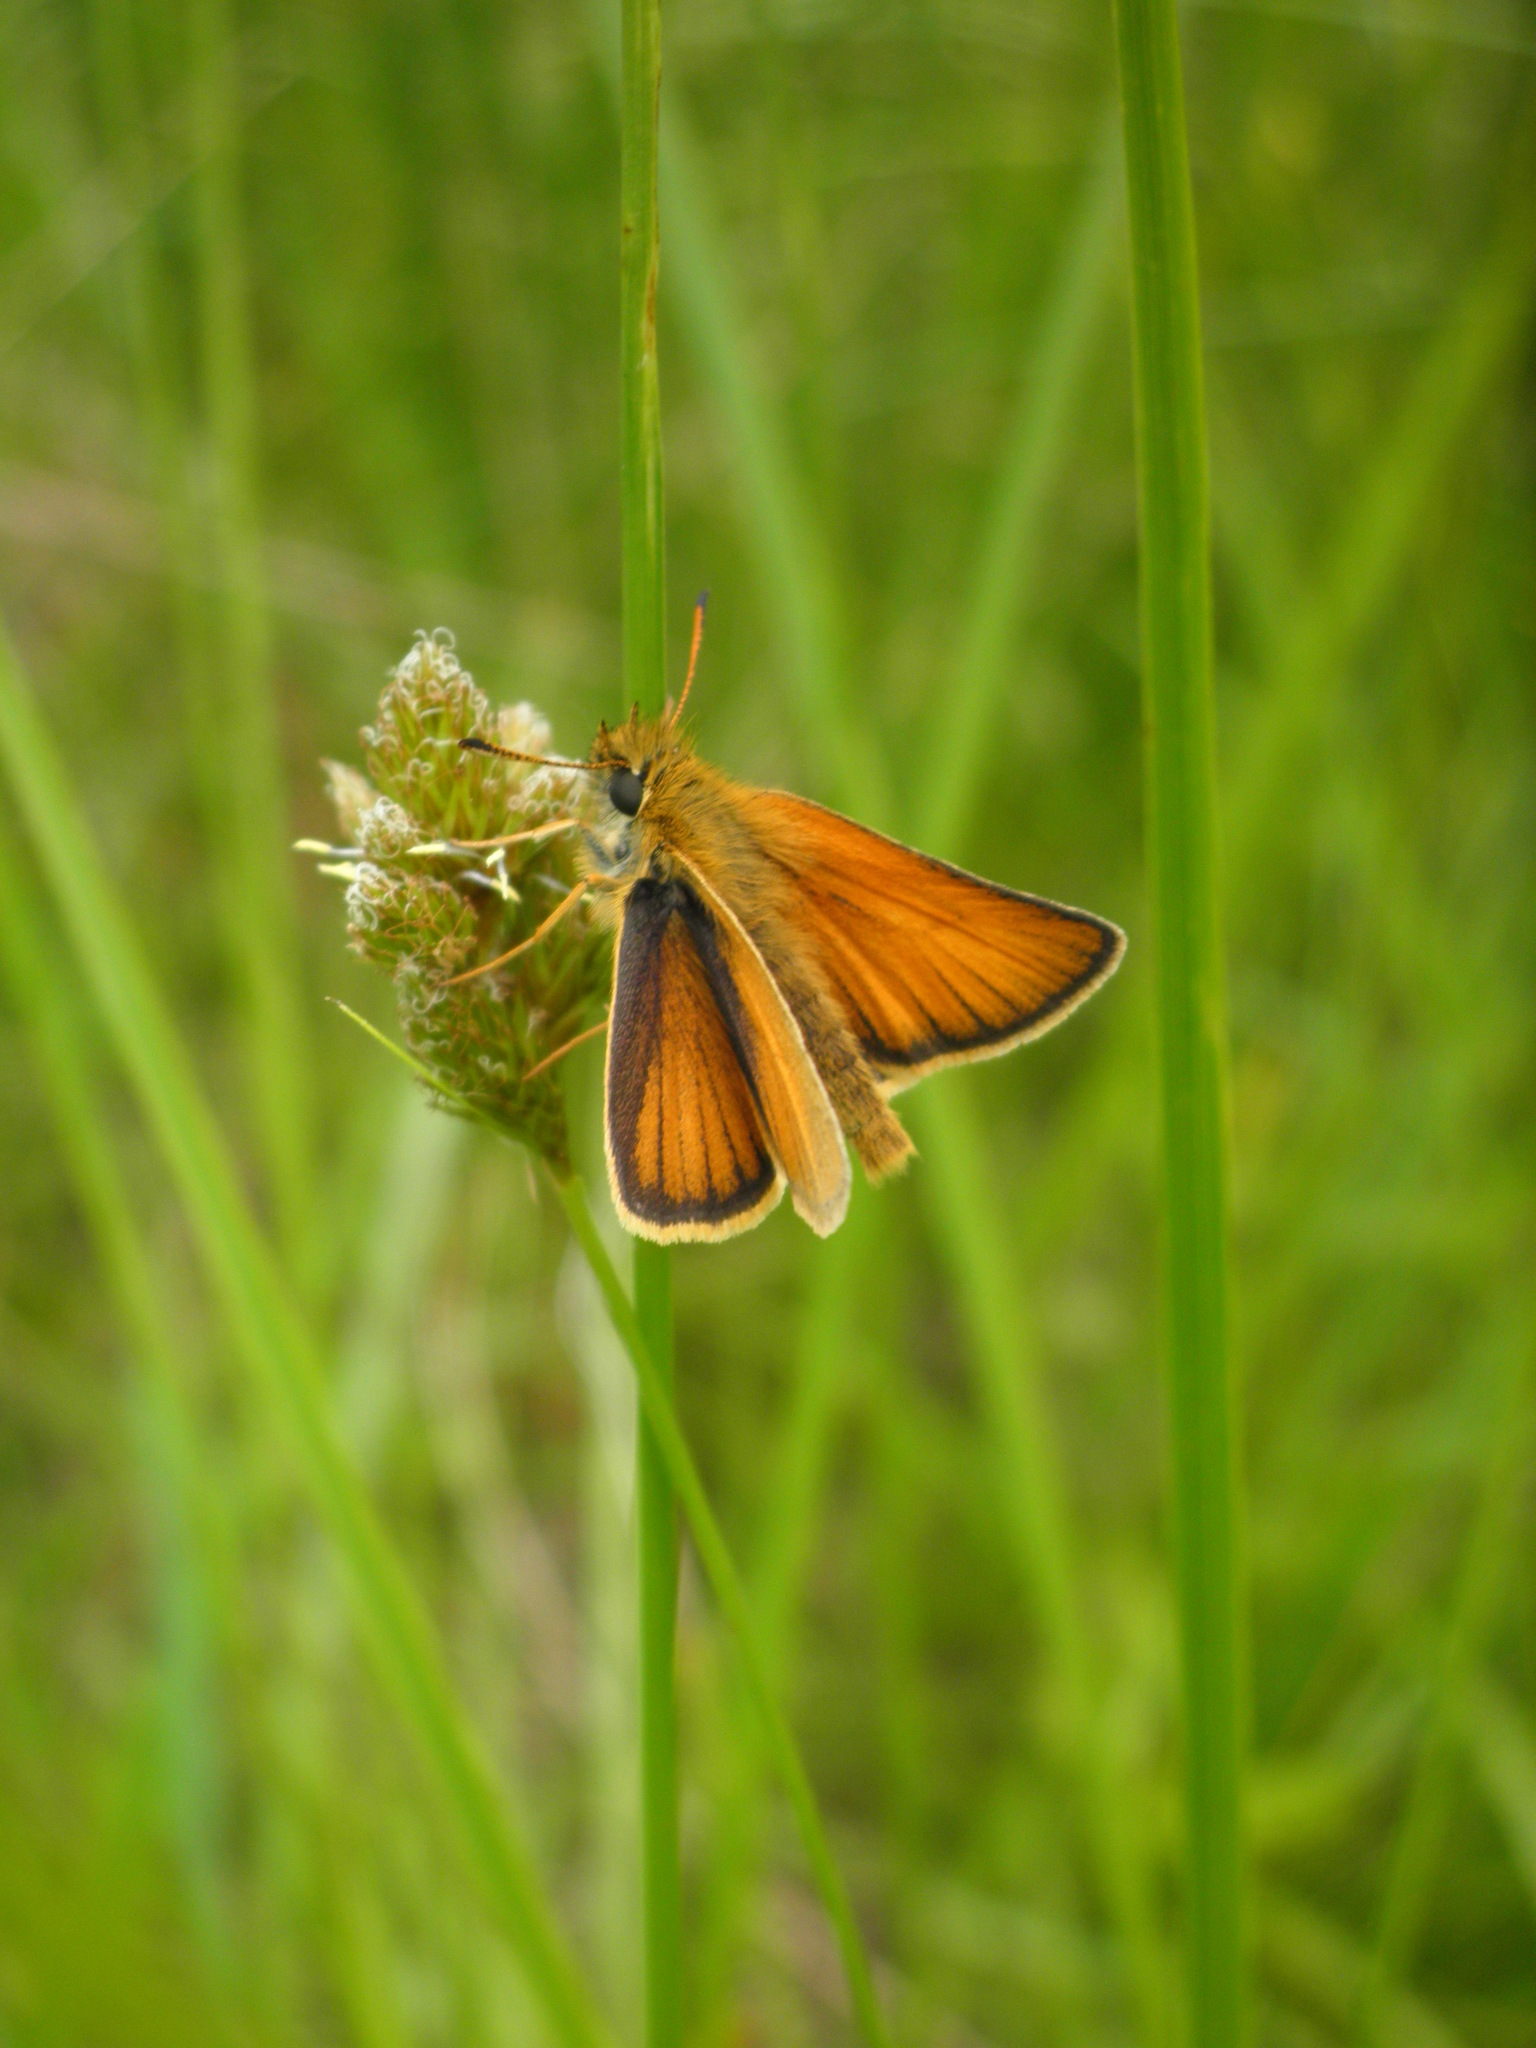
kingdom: Animalia
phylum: Arthropoda
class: Insecta
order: Lepidoptera
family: Hesperiidae
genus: Thymelicus
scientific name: Thymelicus lineola
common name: Essex skipper
